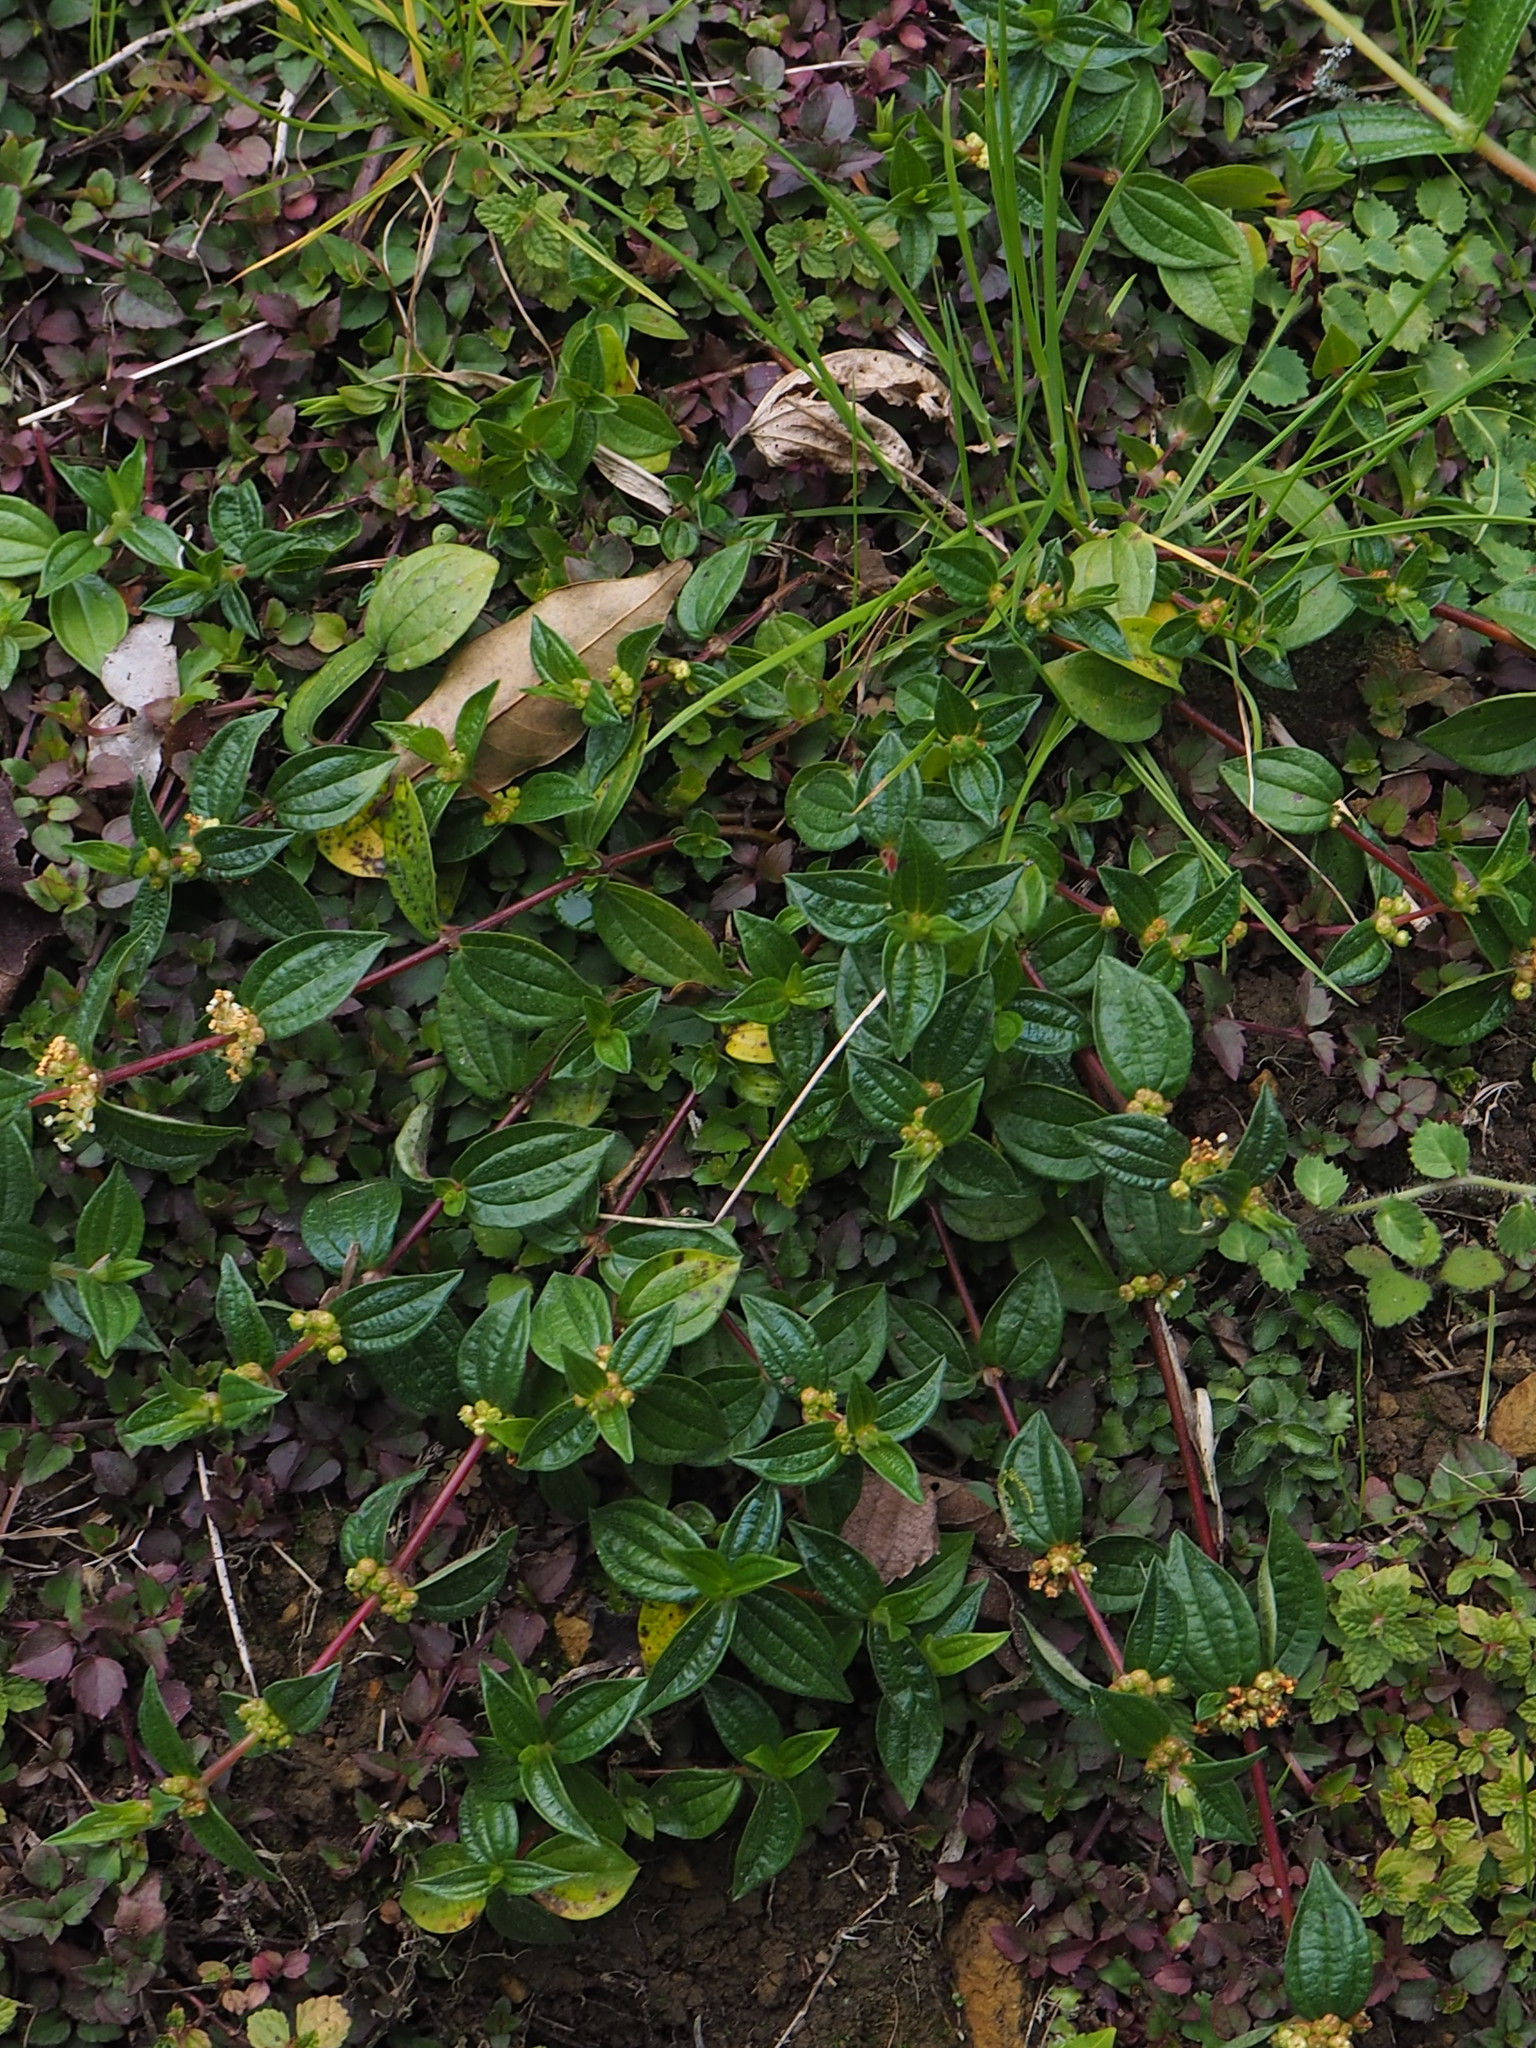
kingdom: Plantae
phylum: Tracheophyta
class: Magnoliopsida
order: Rosales
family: Urticaceae
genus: Gonostegia
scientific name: Gonostegia triandra
